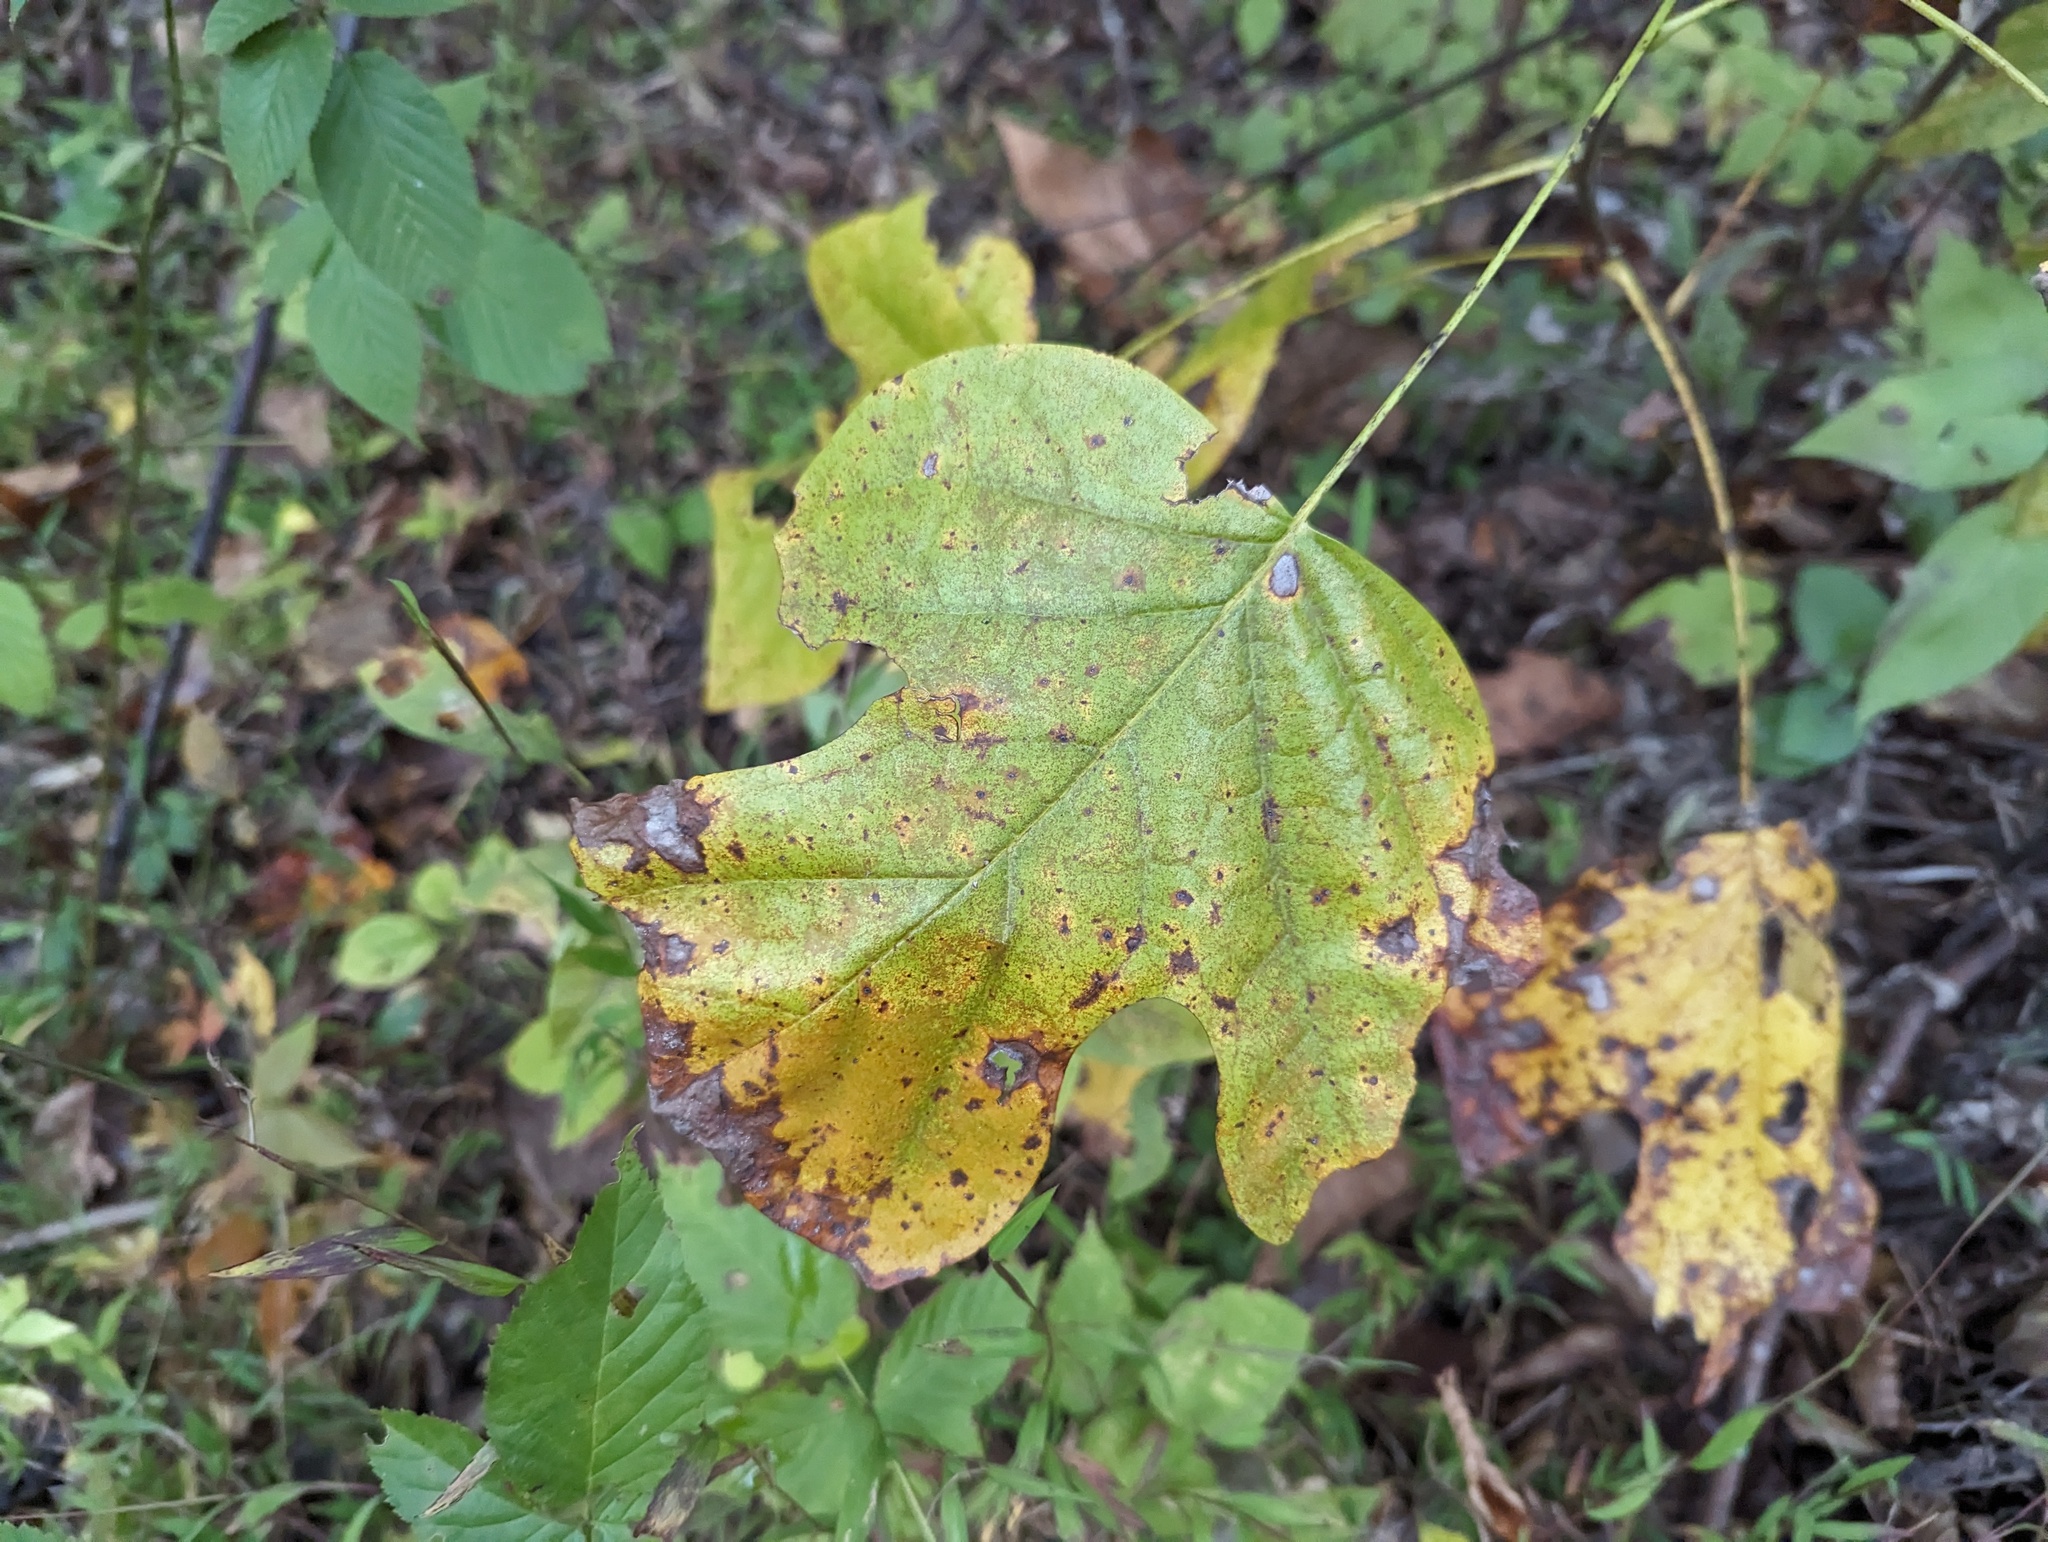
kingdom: Plantae
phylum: Tracheophyta
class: Magnoliopsida
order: Magnoliales
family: Magnoliaceae
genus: Liriodendron
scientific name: Liriodendron tulipifera
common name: Tulip tree
